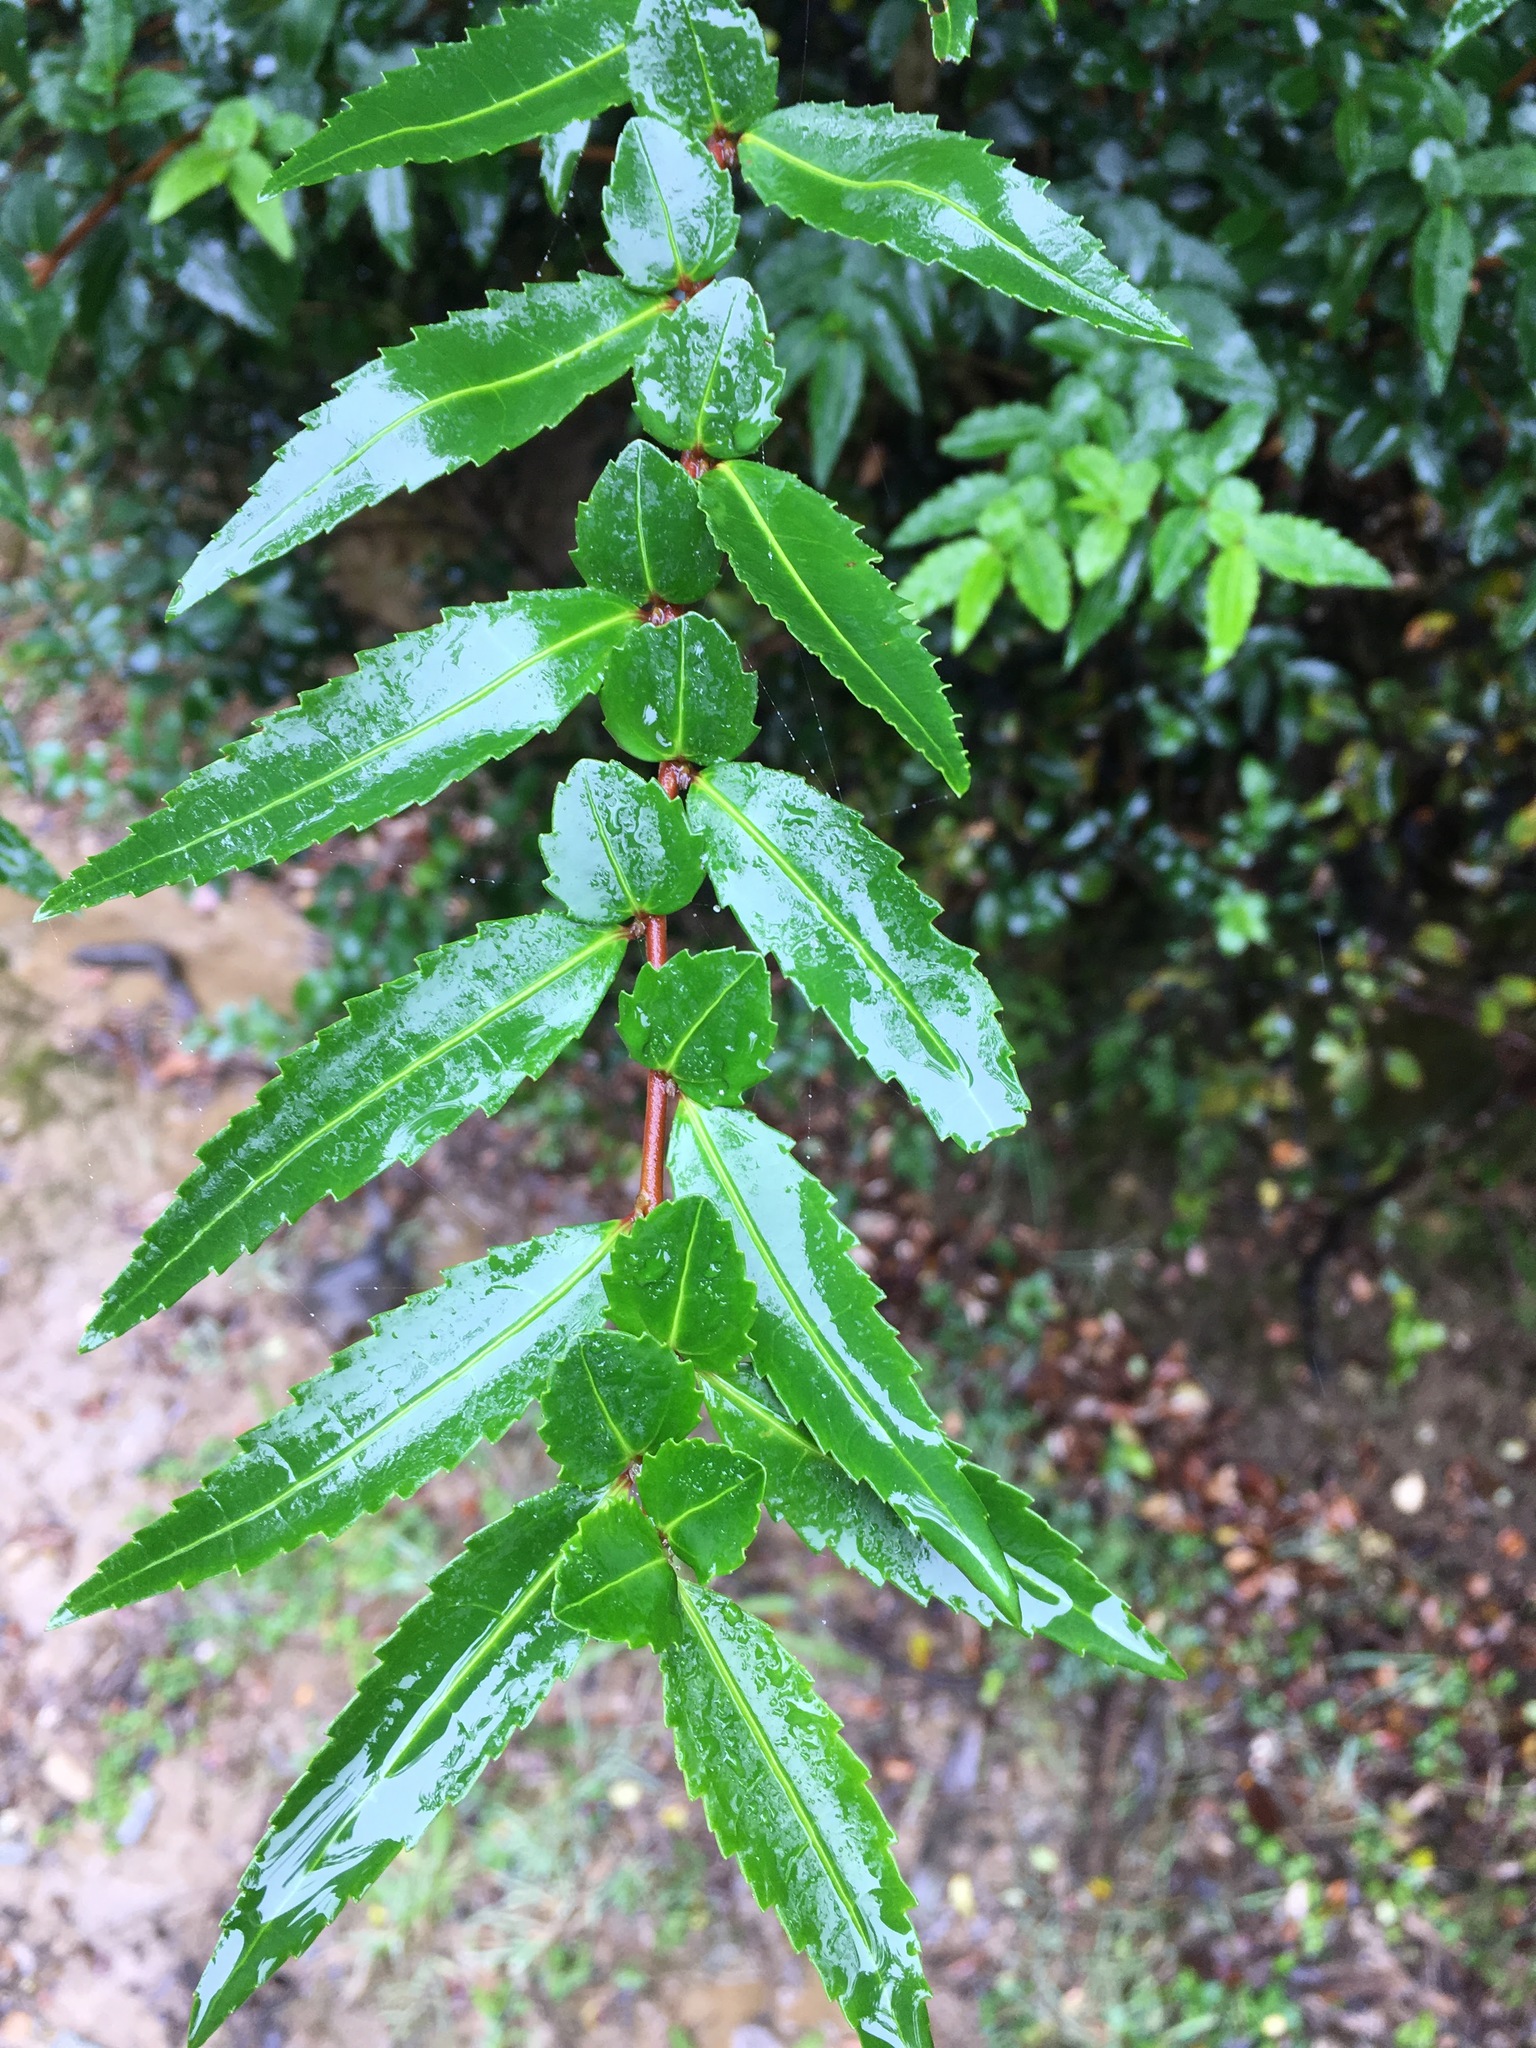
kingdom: Plantae
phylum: Tracheophyta
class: Magnoliopsida
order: Malpighiales
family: Salicaceae
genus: Azara
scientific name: Azara lanceolata
